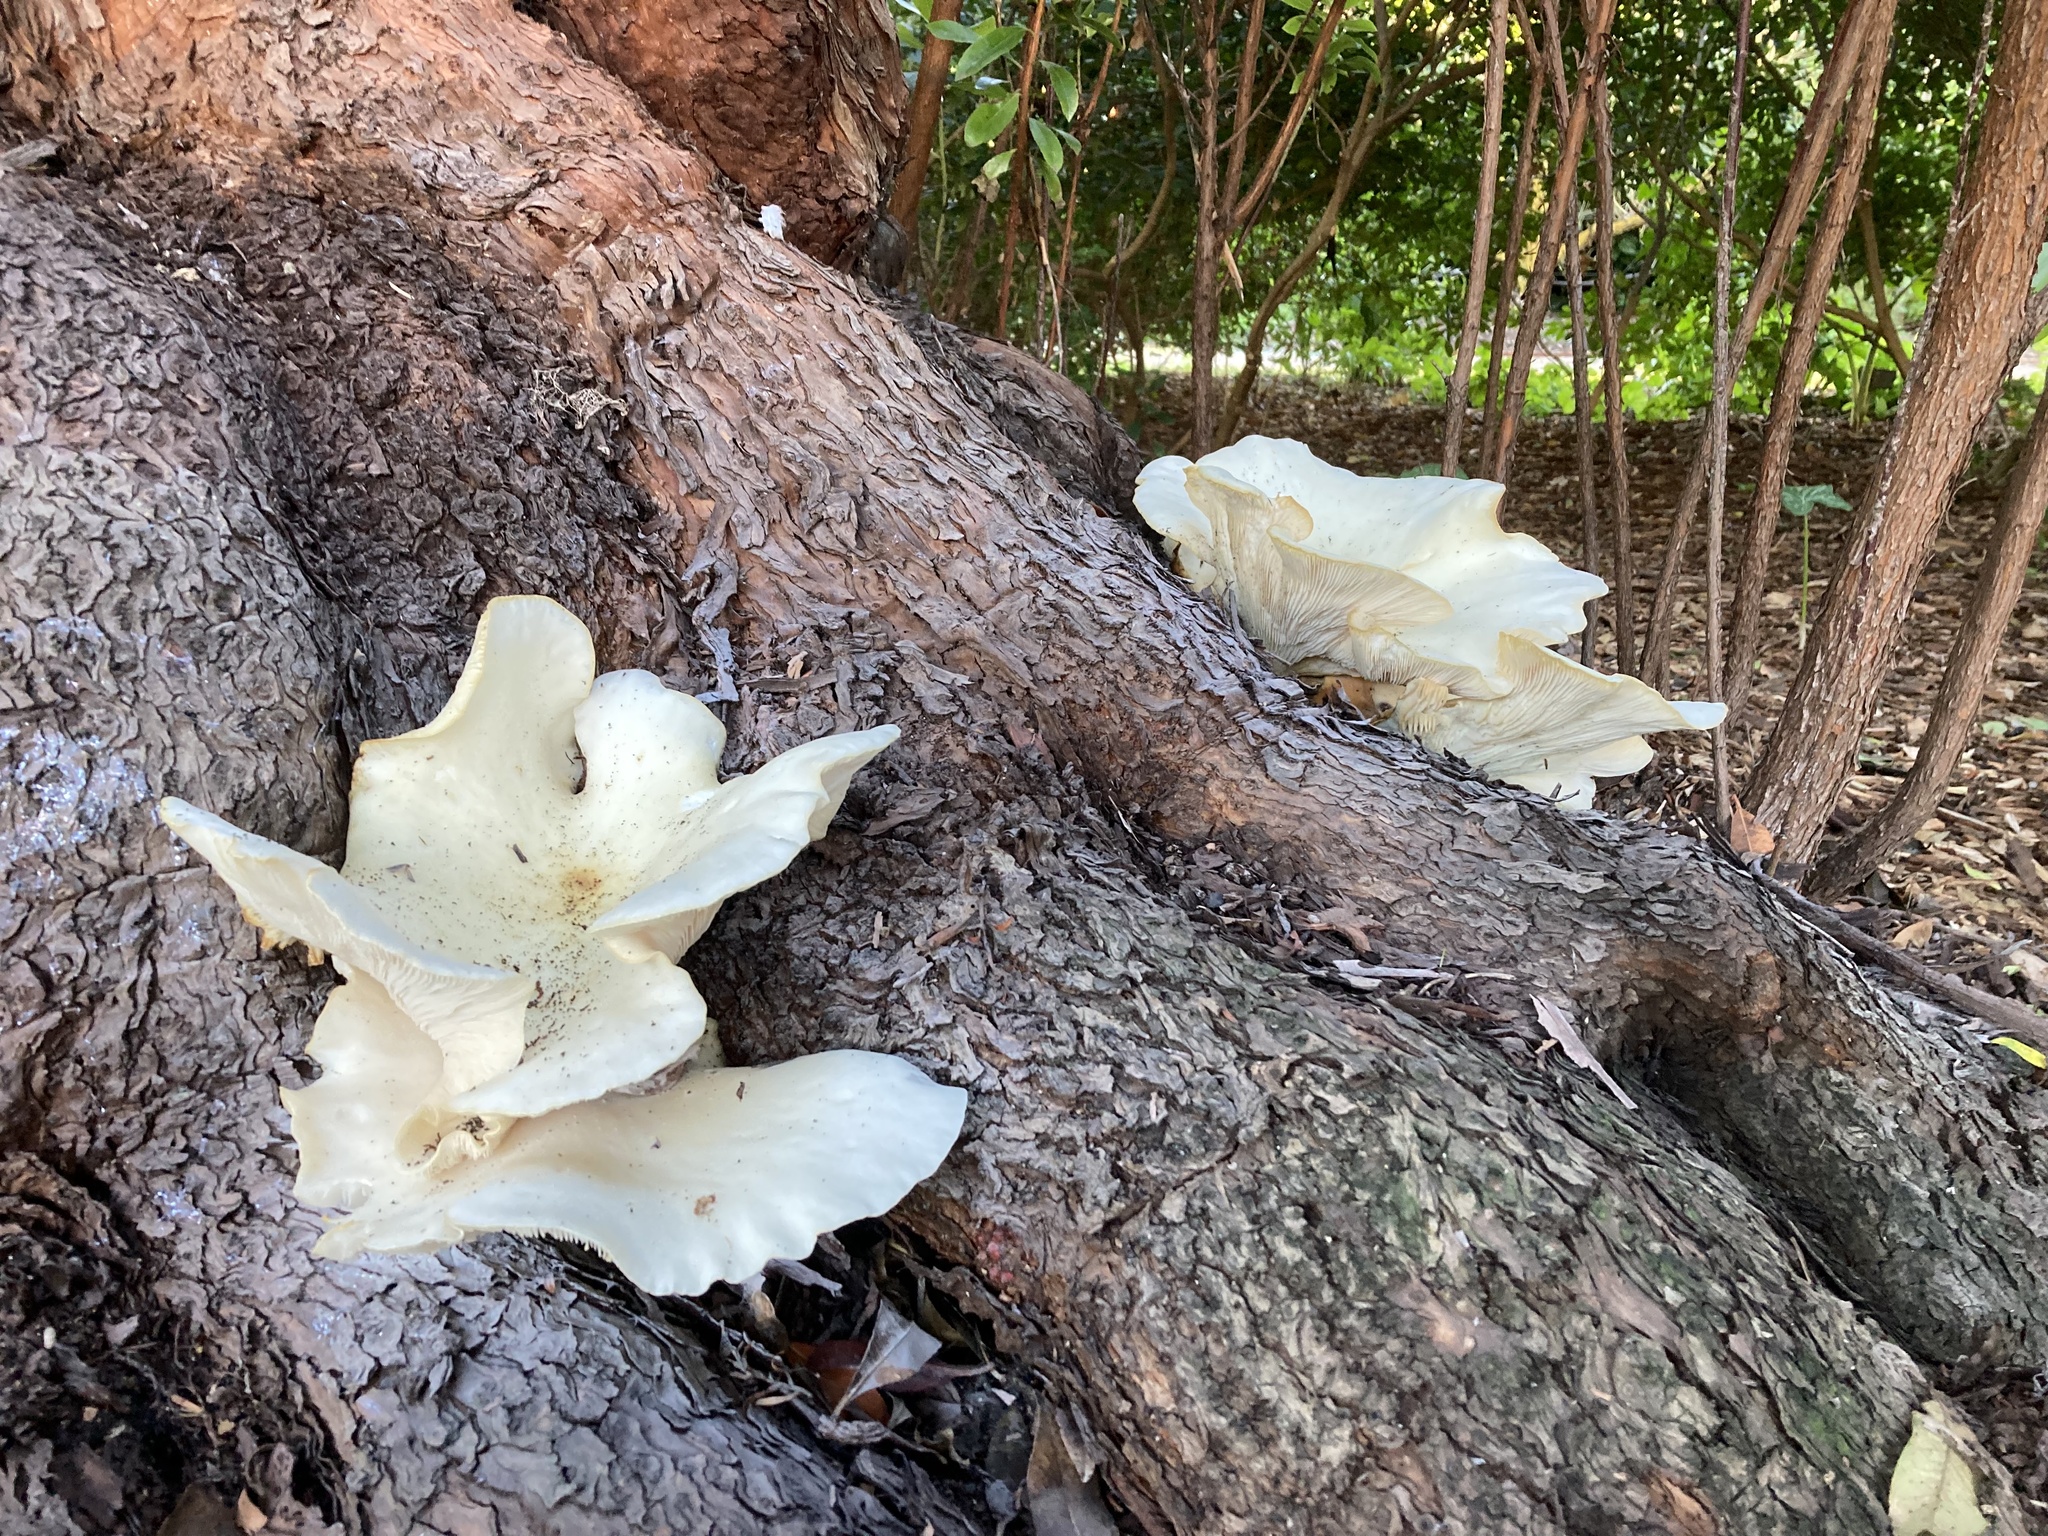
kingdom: Fungi
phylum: Basidiomycota
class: Agaricomycetes
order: Agaricales
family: Omphalotaceae
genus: Omphalotus
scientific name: Omphalotus nidiformis
